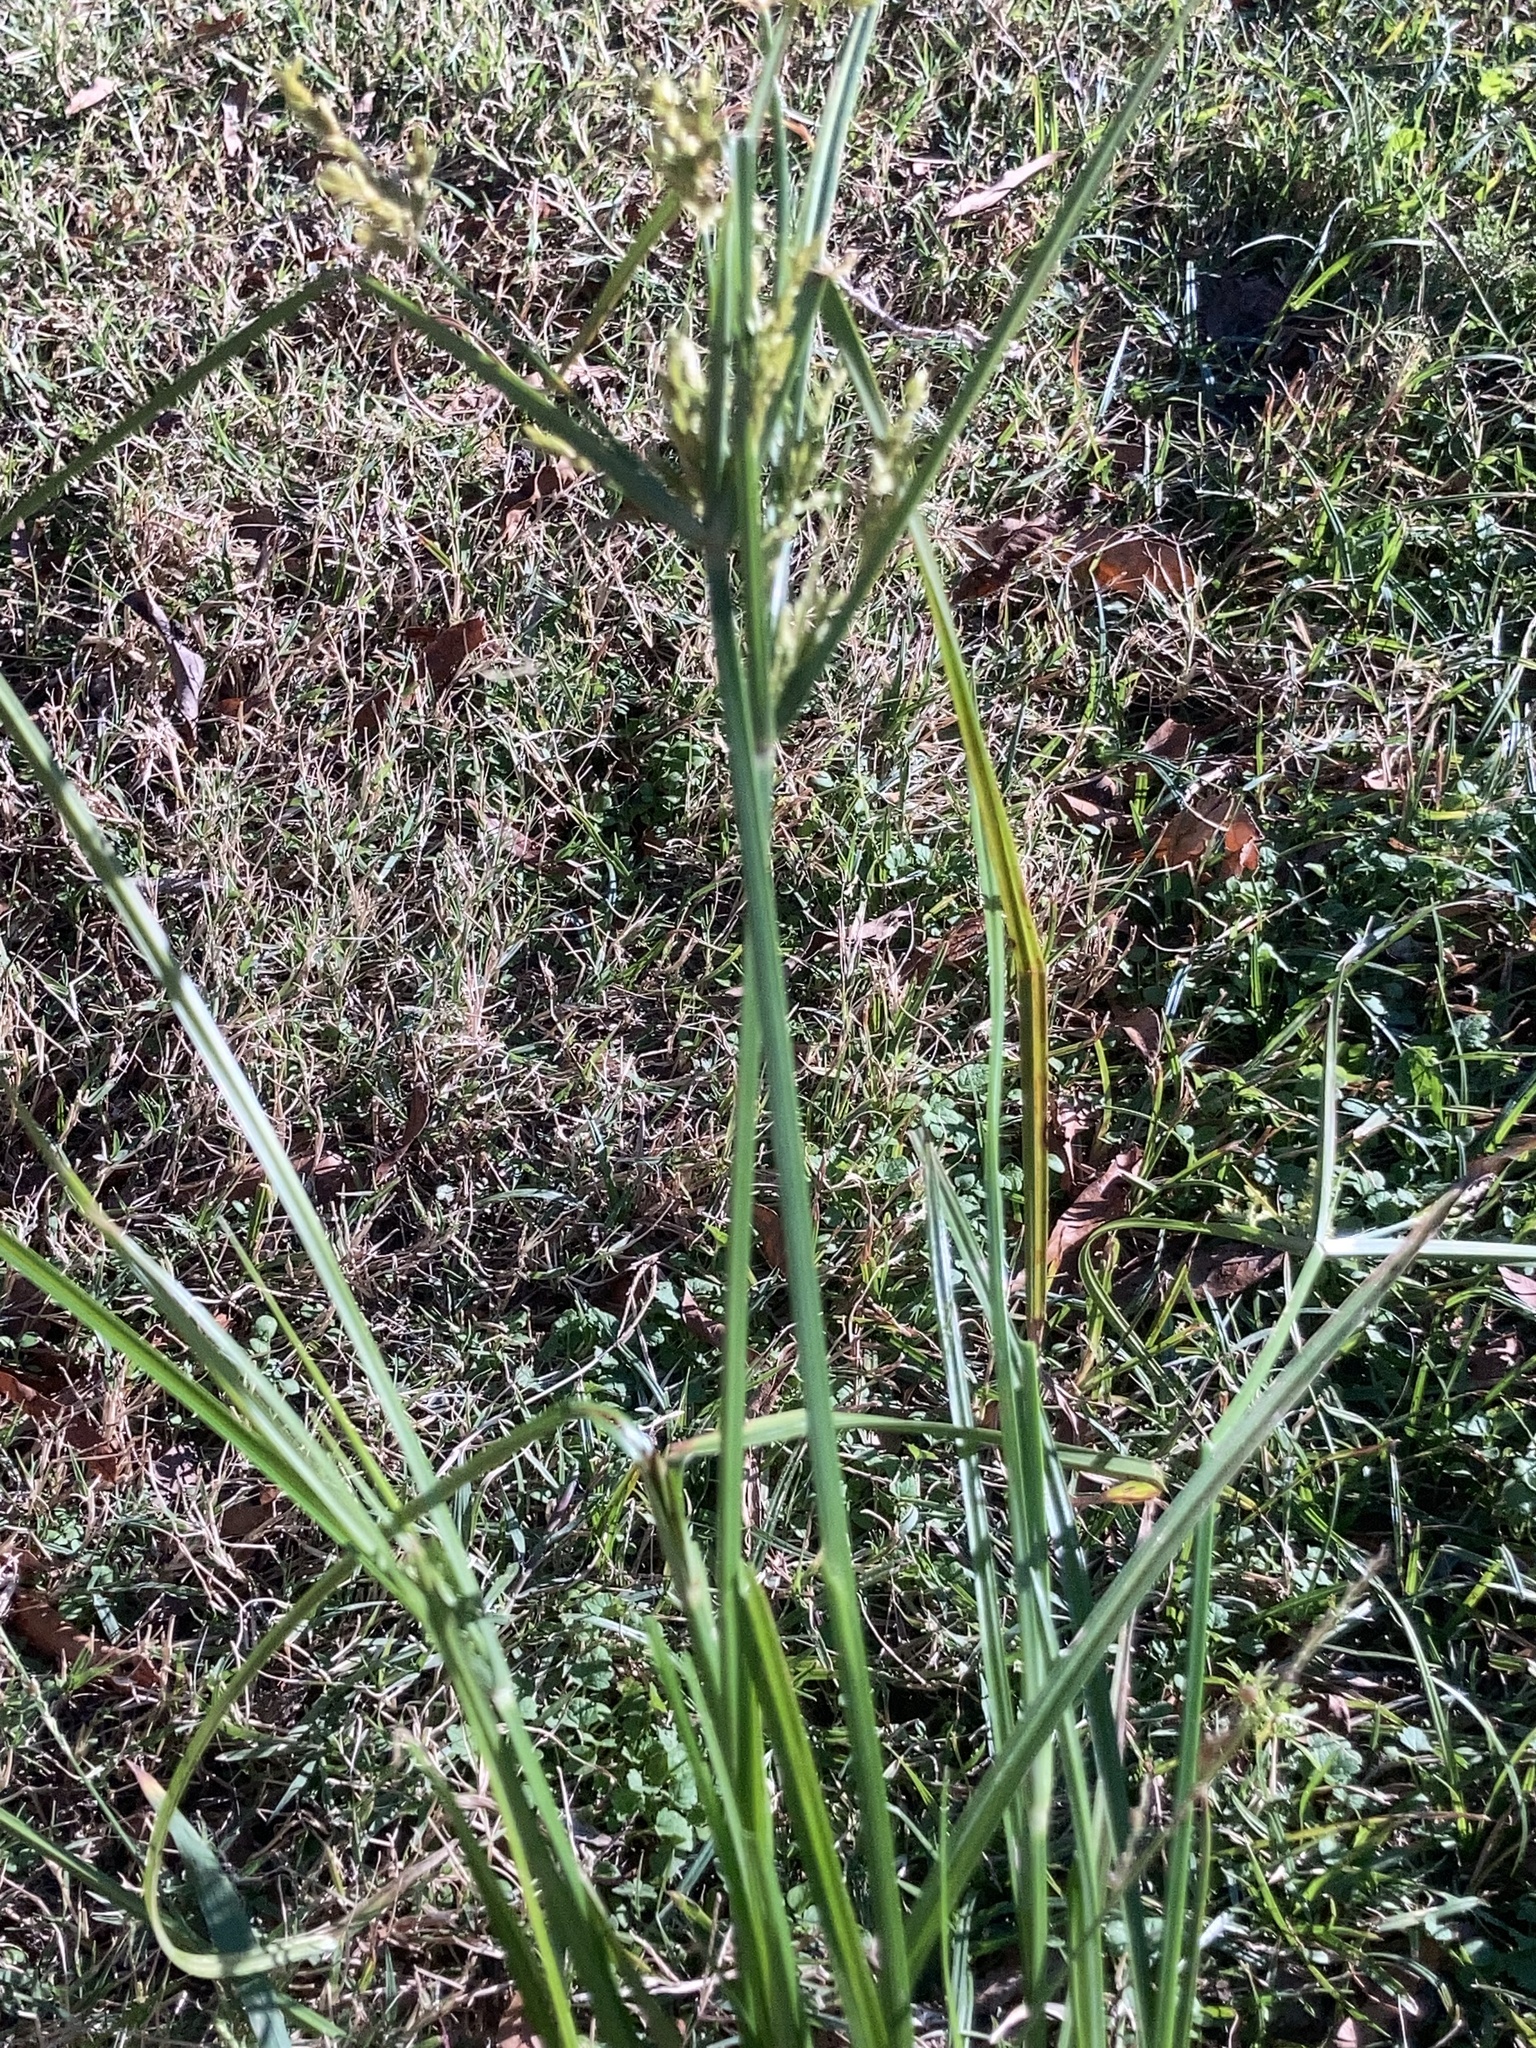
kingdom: Plantae
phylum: Tracheophyta
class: Liliopsida
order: Poales
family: Cyperaceae
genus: Cyperus
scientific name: Cyperus iria
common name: Ricefield flatsedge
